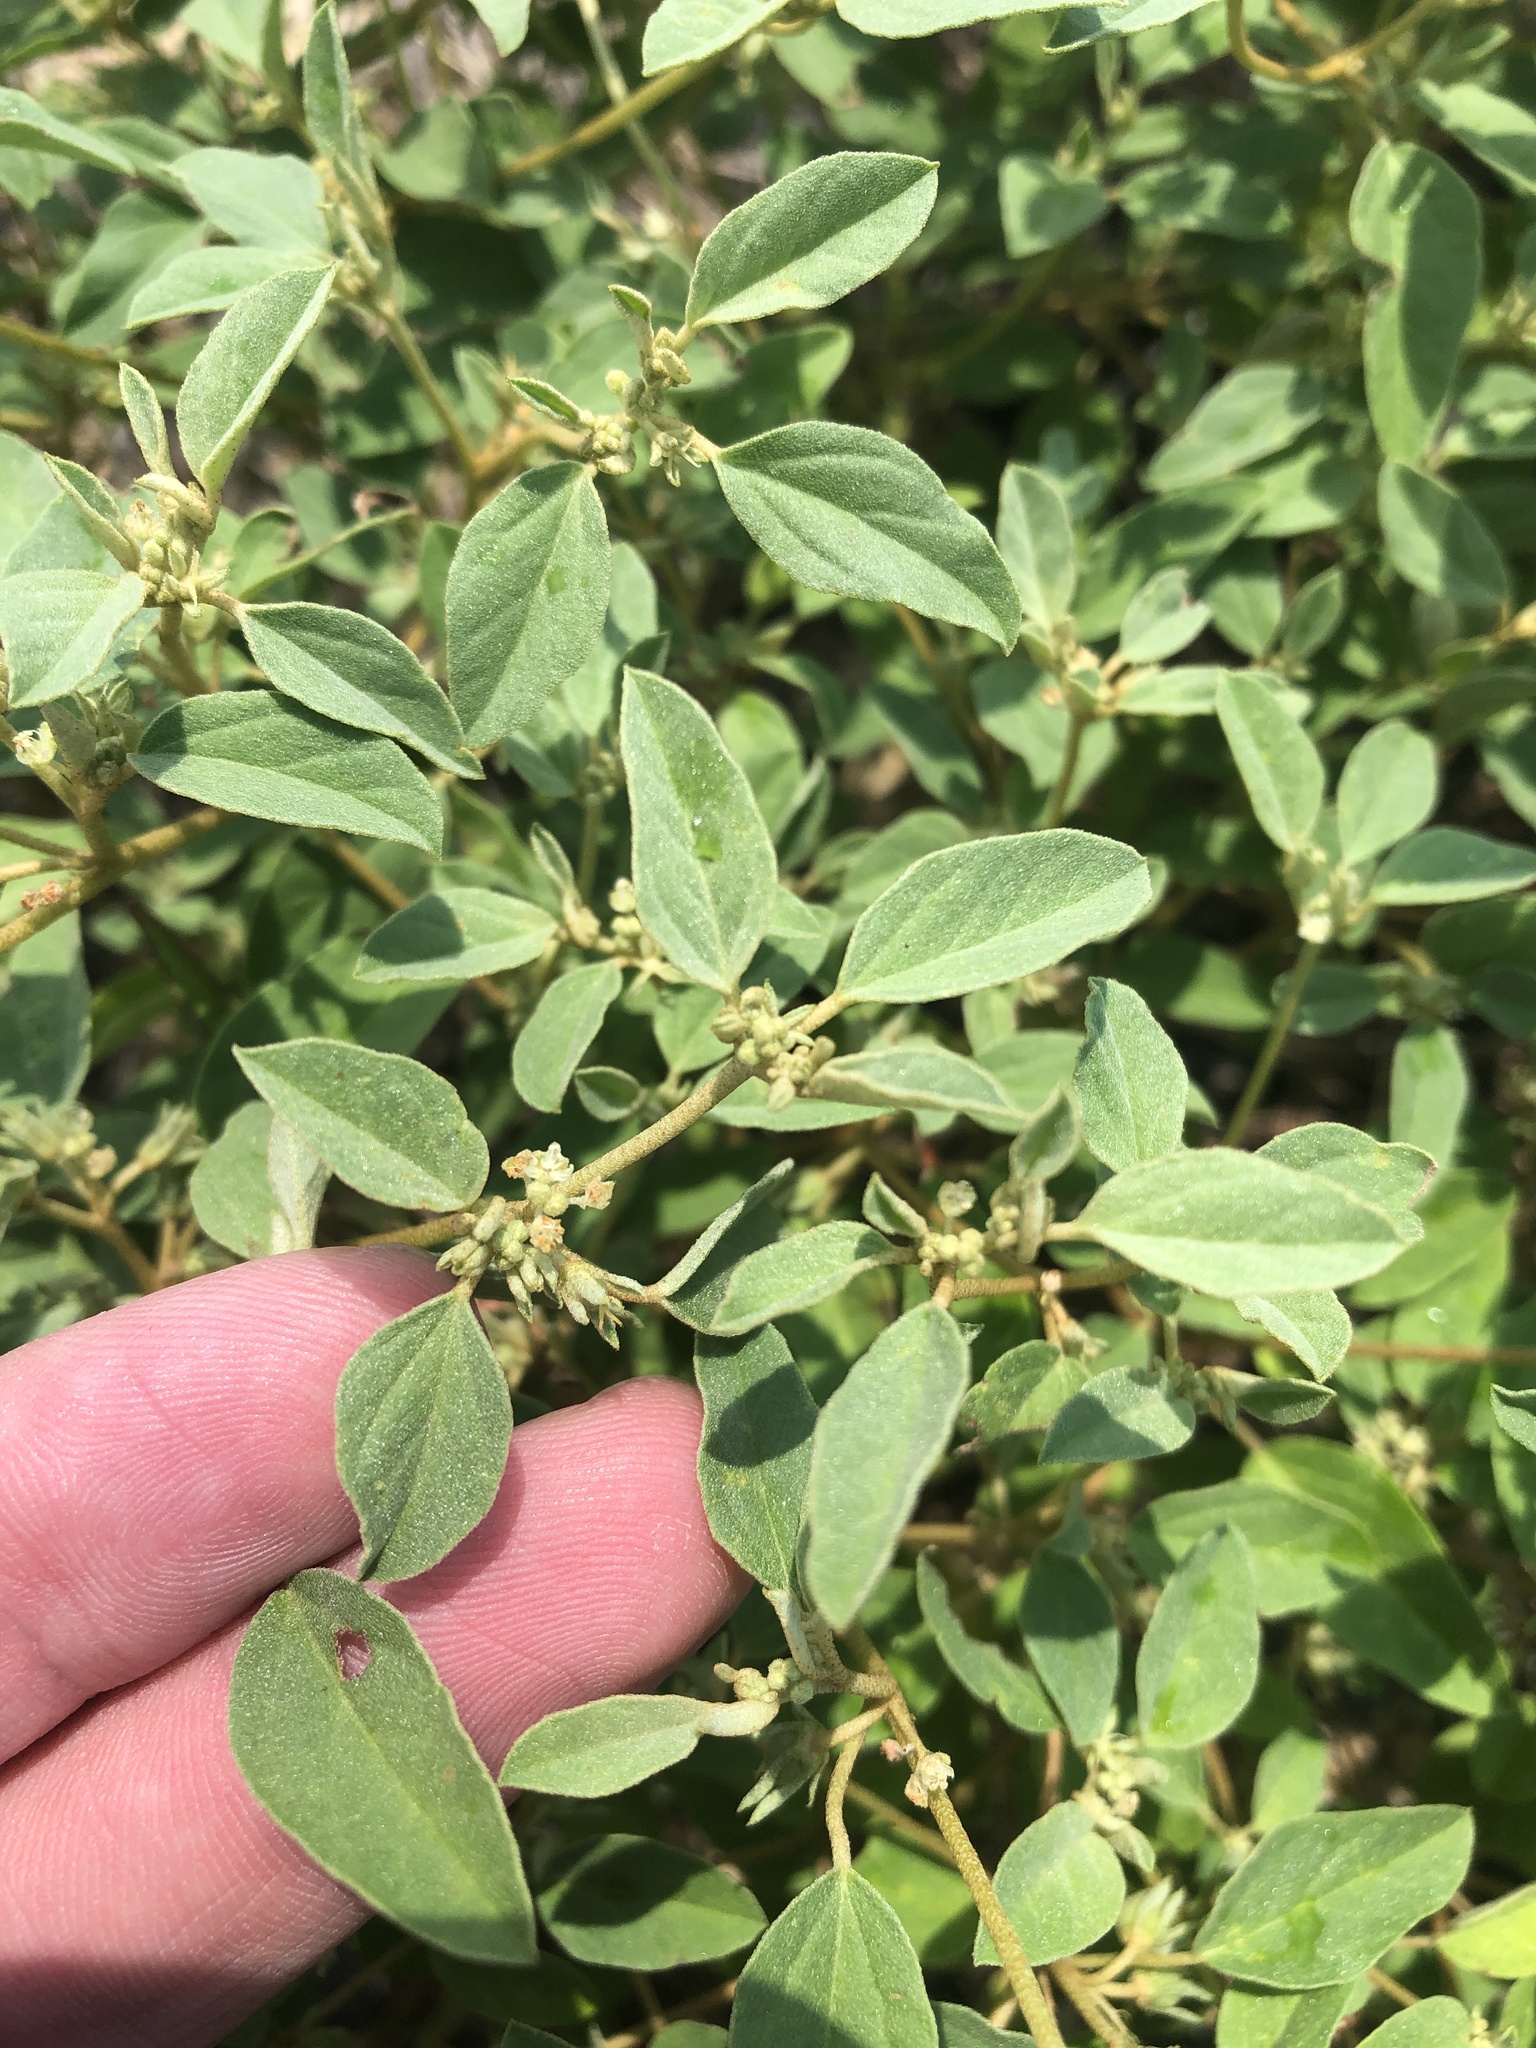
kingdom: Plantae
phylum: Tracheophyta
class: Magnoliopsida
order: Malpighiales
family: Euphorbiaceae
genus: Croton
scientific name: Croton monanthogynus
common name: One-seed croton
